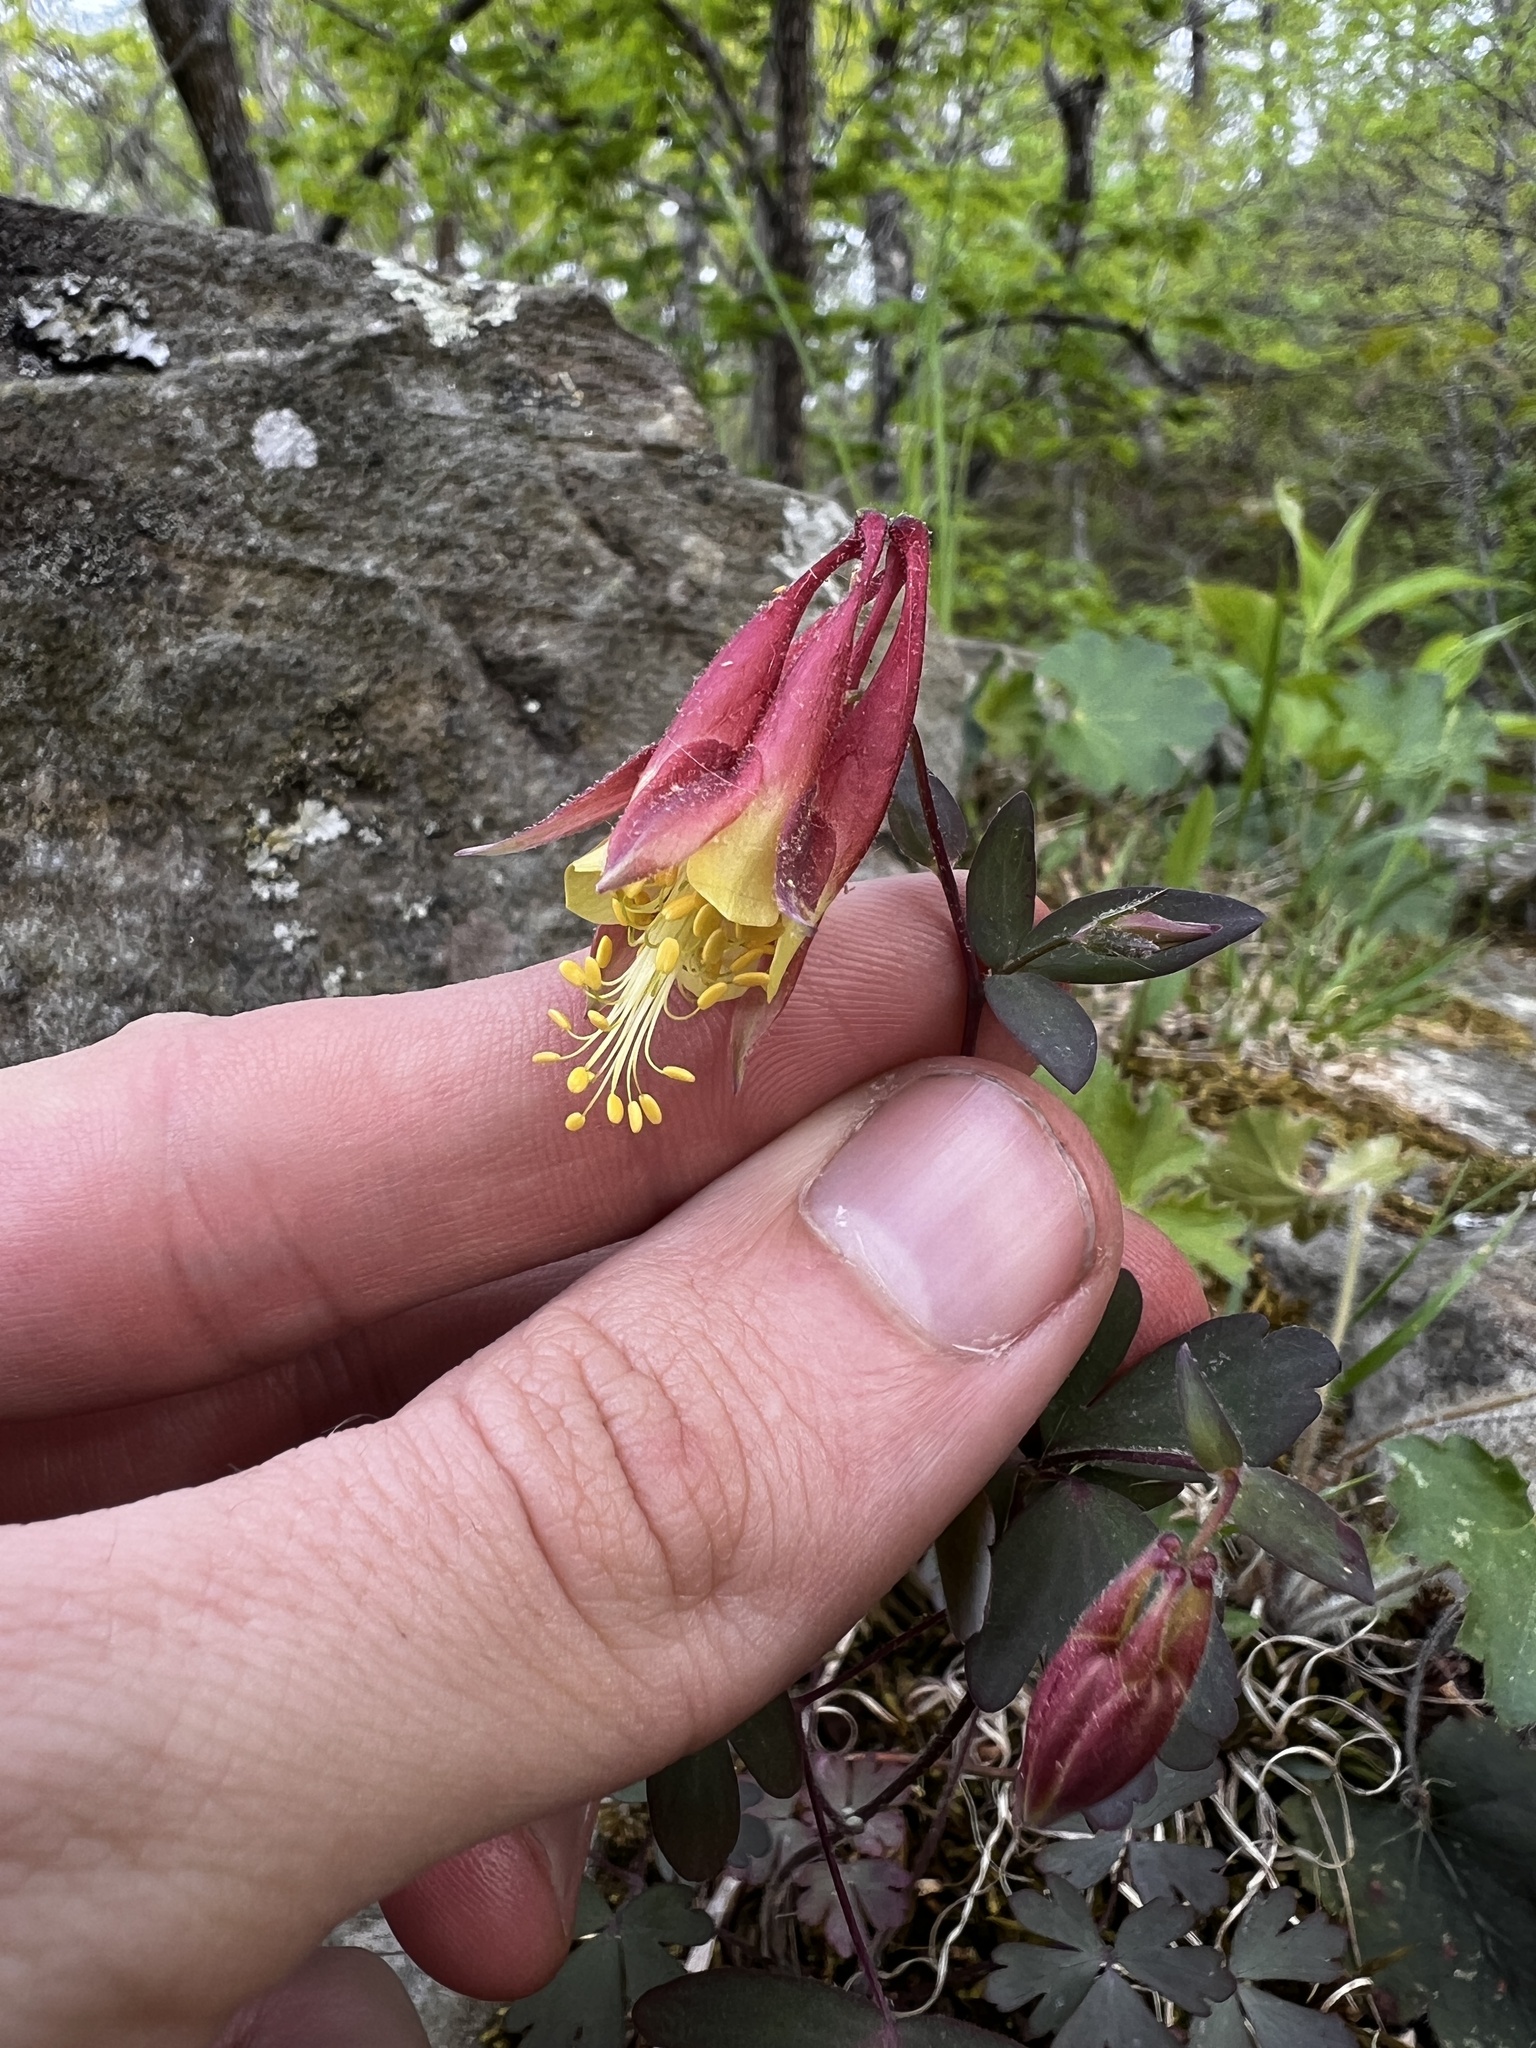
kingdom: Plantae
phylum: Tracheophyta
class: Magnoliopsida
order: Ranunculales
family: Ranunculaceae
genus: Aquilegia
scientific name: Aquilegia canadensis
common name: American columbine
